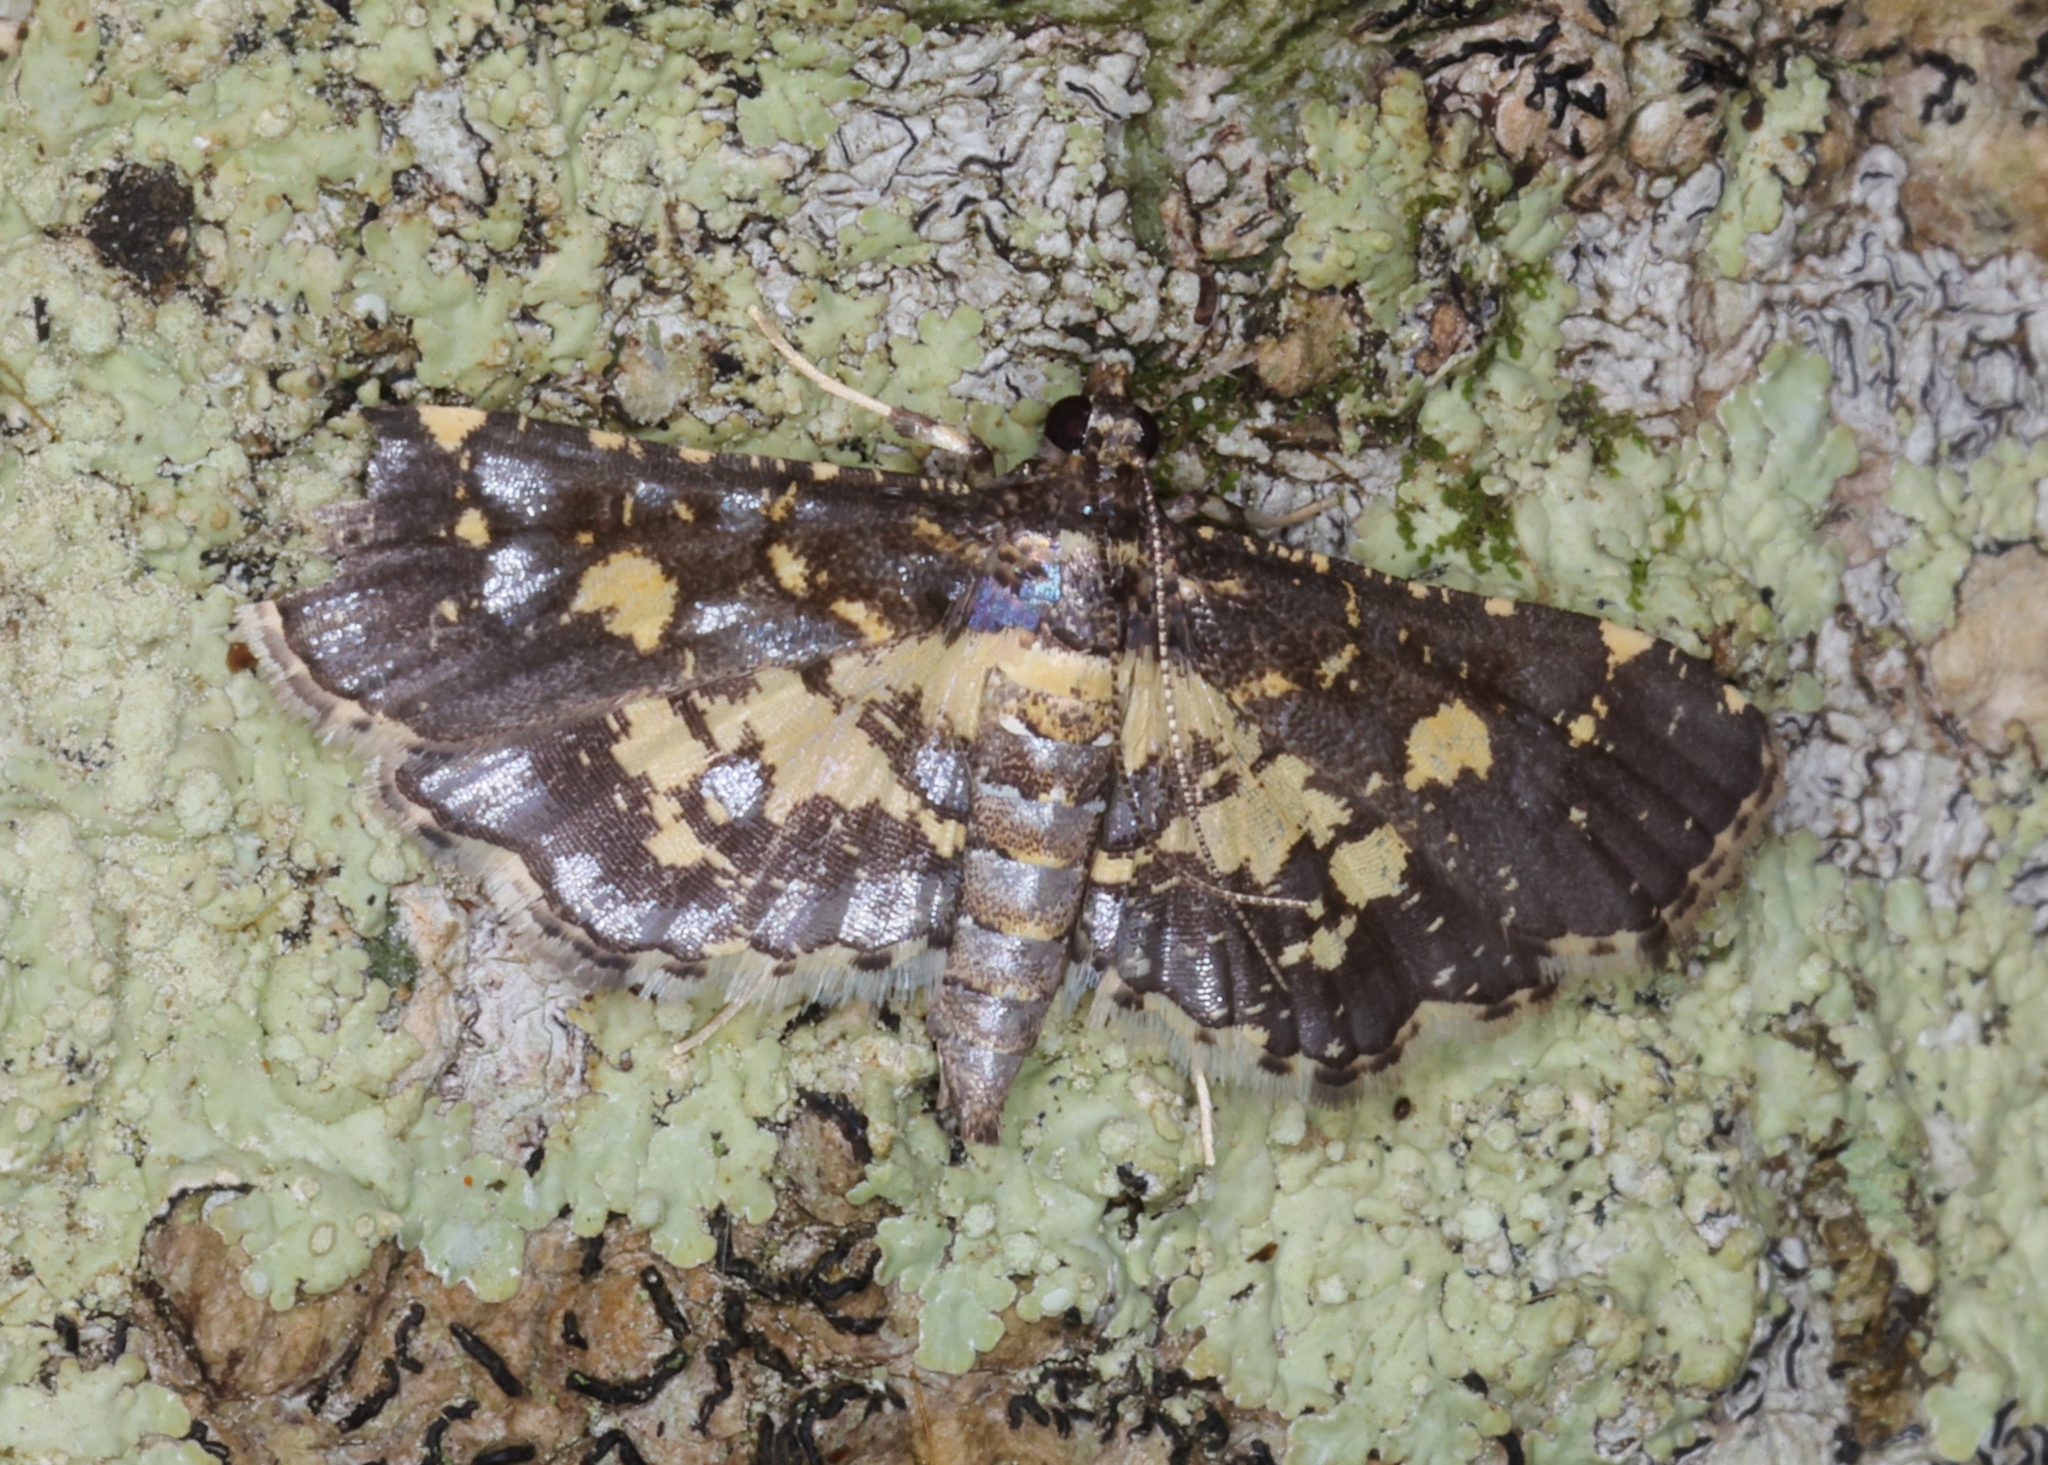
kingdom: Animalia
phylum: Arthropoda
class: Insecta
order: Lepidoptera
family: Crambidae
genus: Eurrhyparodes
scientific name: Eurrhyparodes bracteolalis
